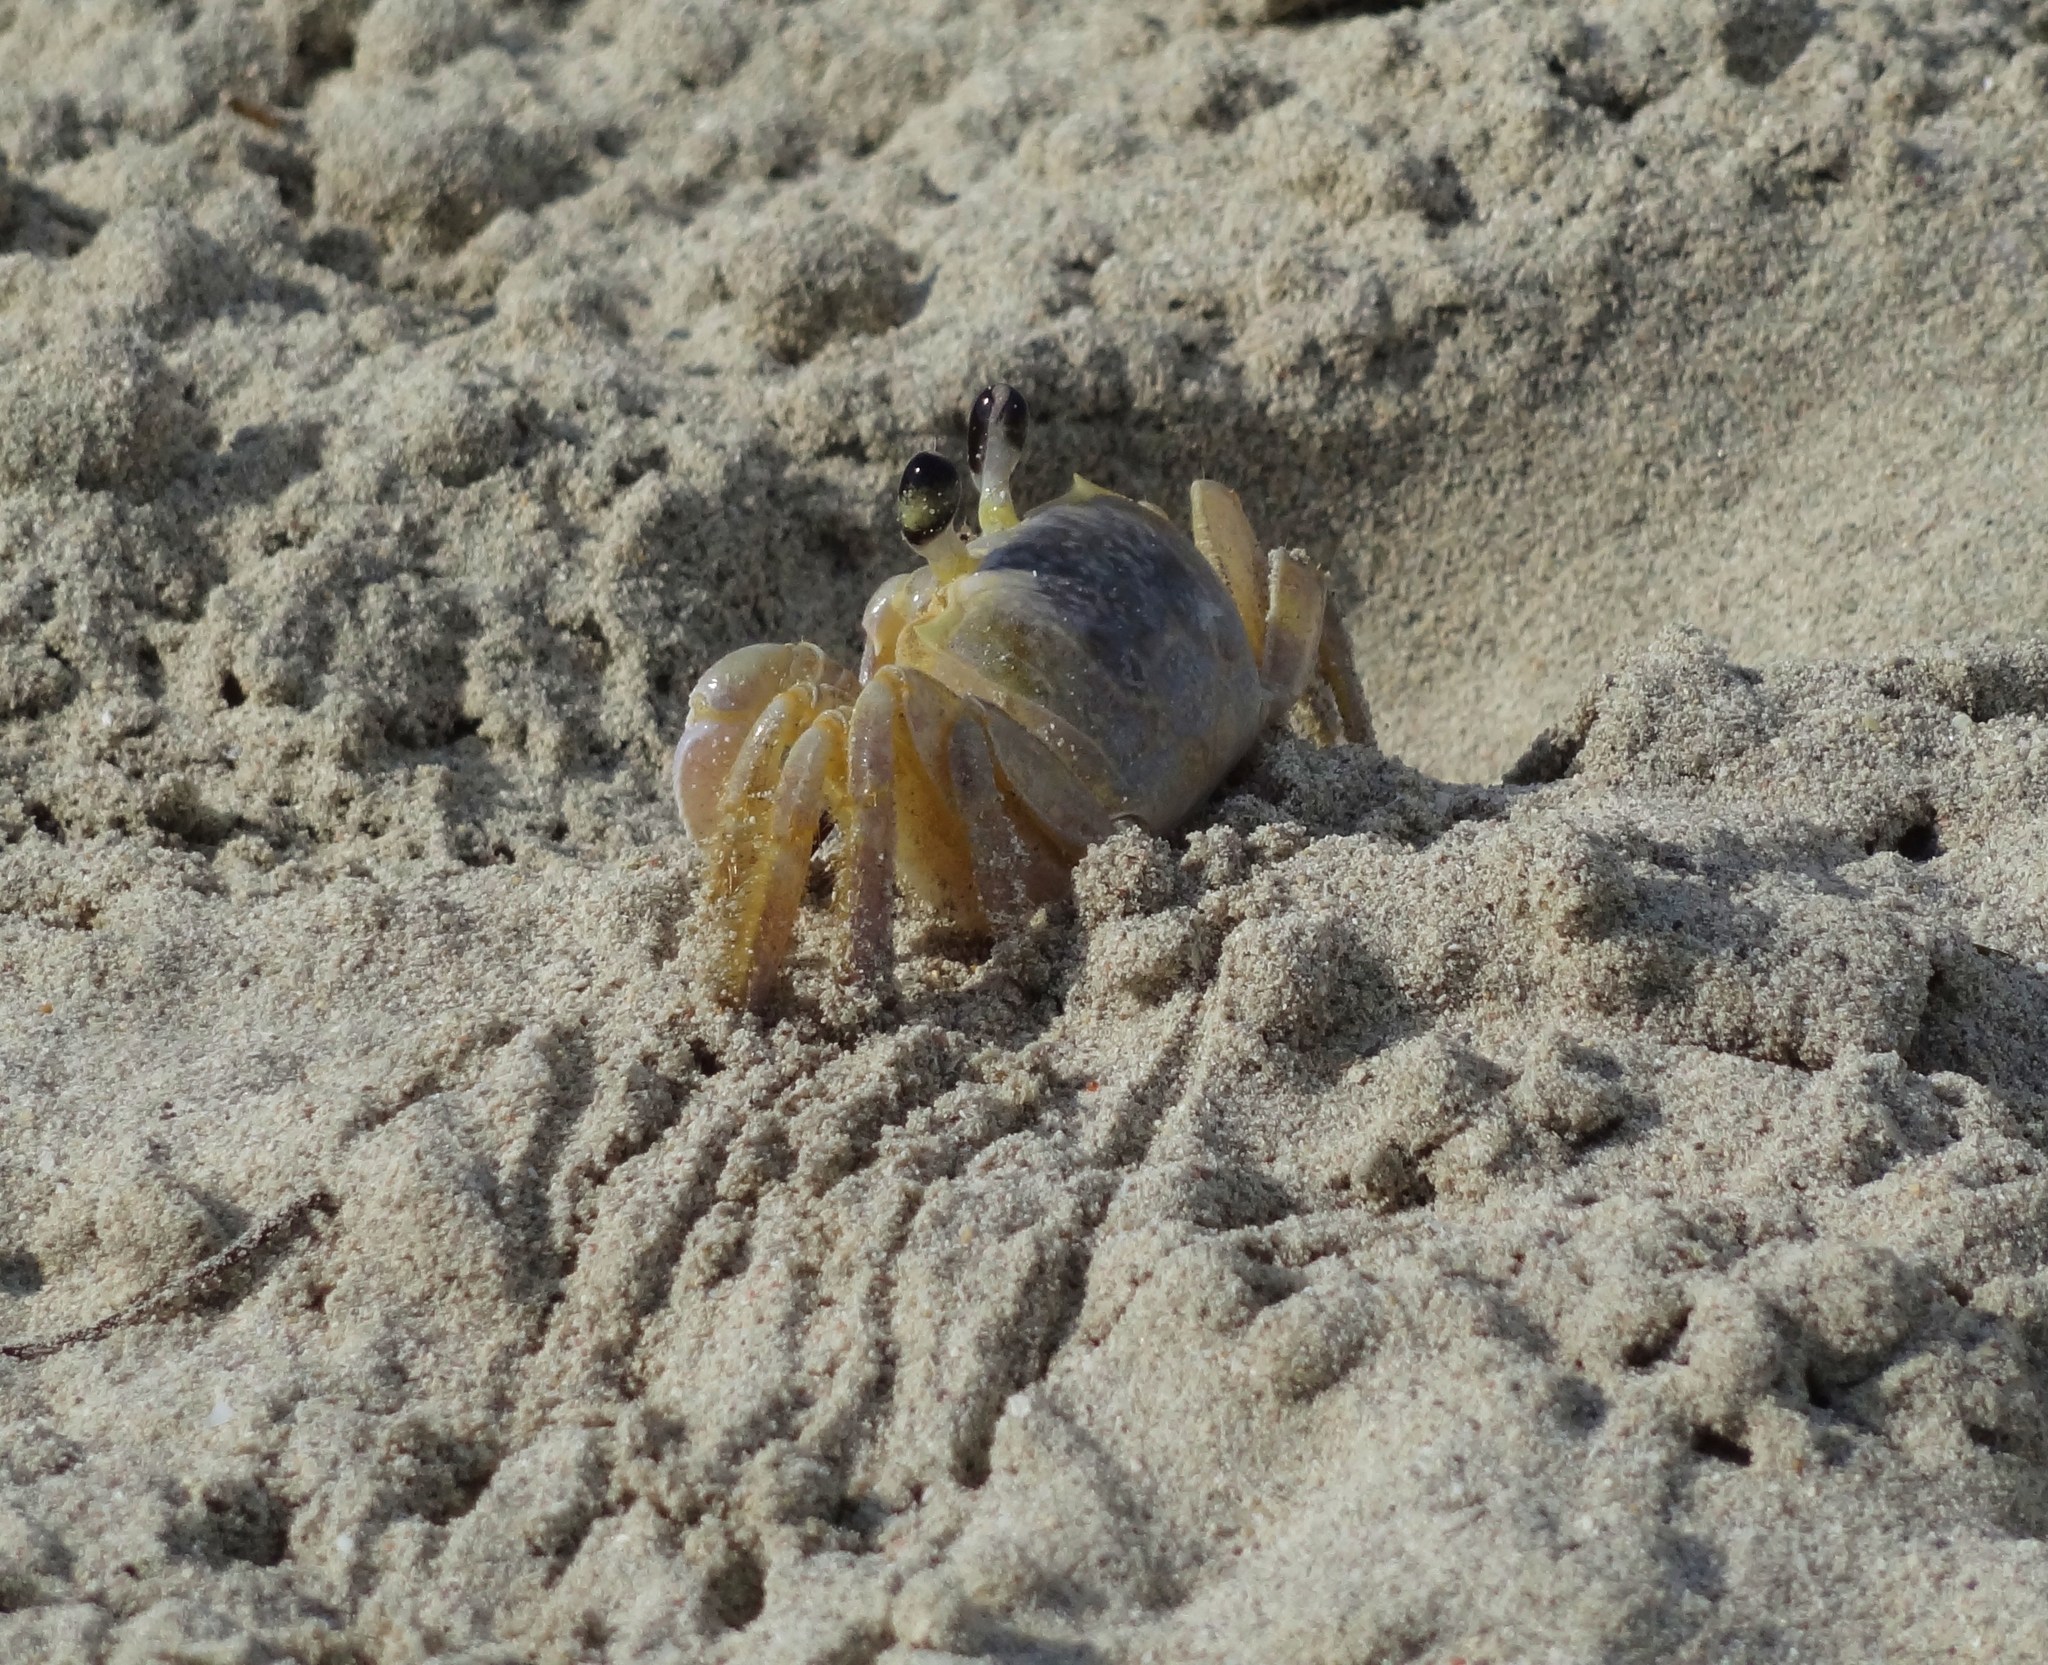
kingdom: Animalia
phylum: Arthropoda
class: Malacostraca
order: Decapoda
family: Ocypodidae
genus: Ocypode
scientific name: Ocypode quadrata
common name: Ghost crab
